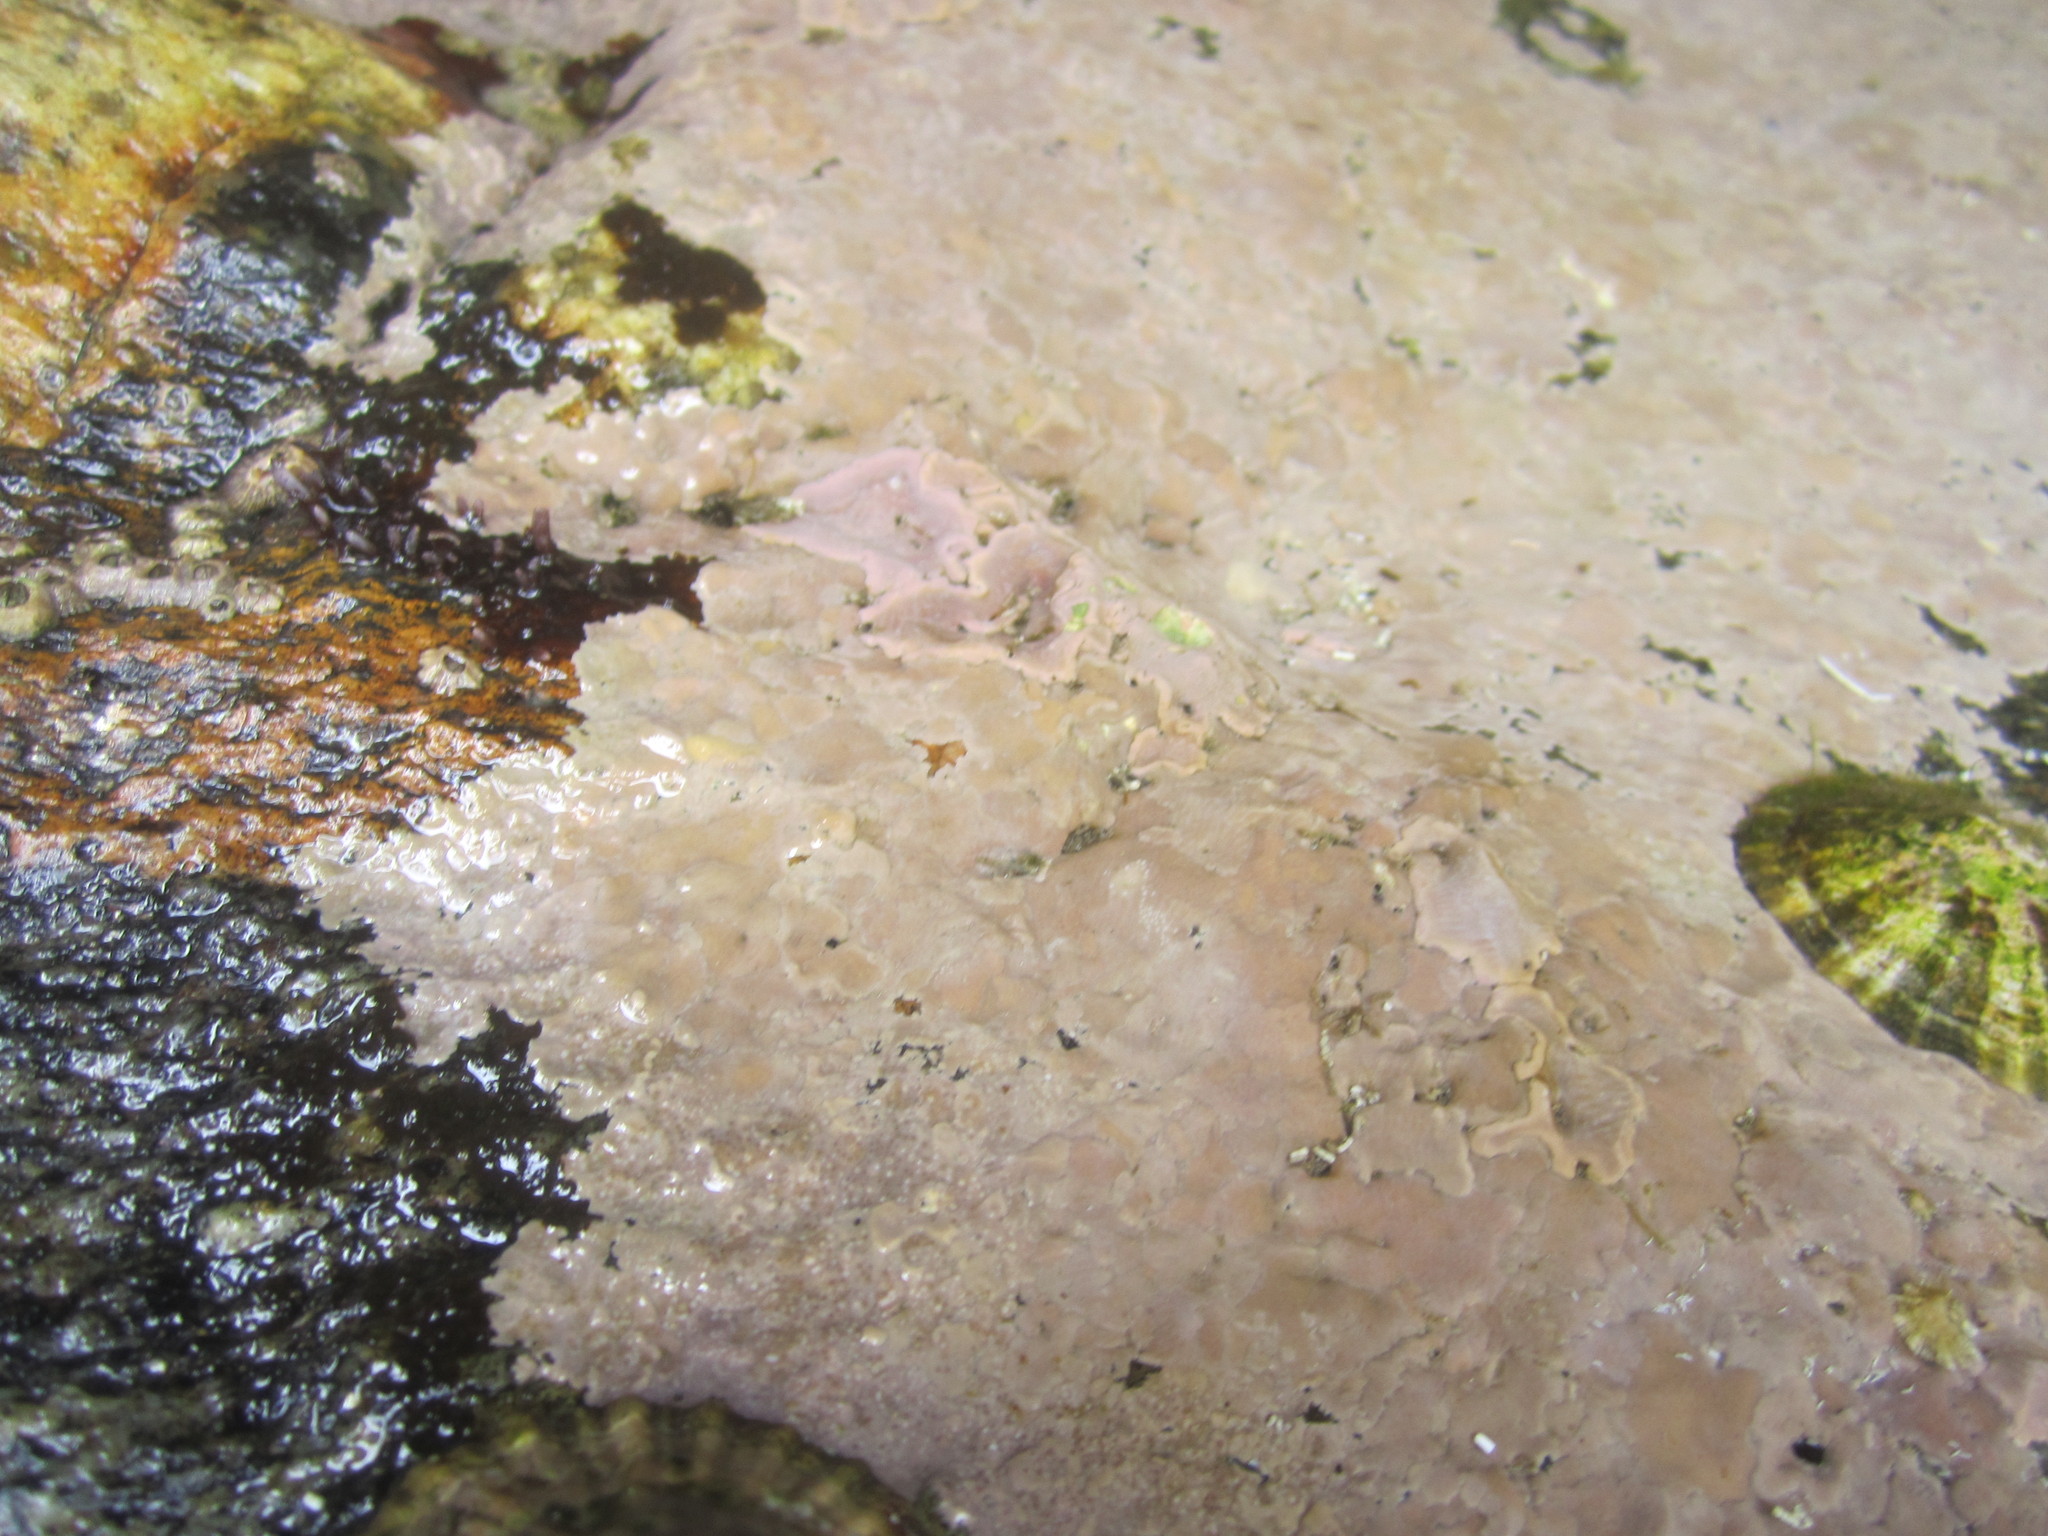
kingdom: Plantae
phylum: Rhodophyta
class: Florideophyceae
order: Corallinales
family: Lithophyllaceae
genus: Lithophyllum
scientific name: Lithophyllum incrustans
